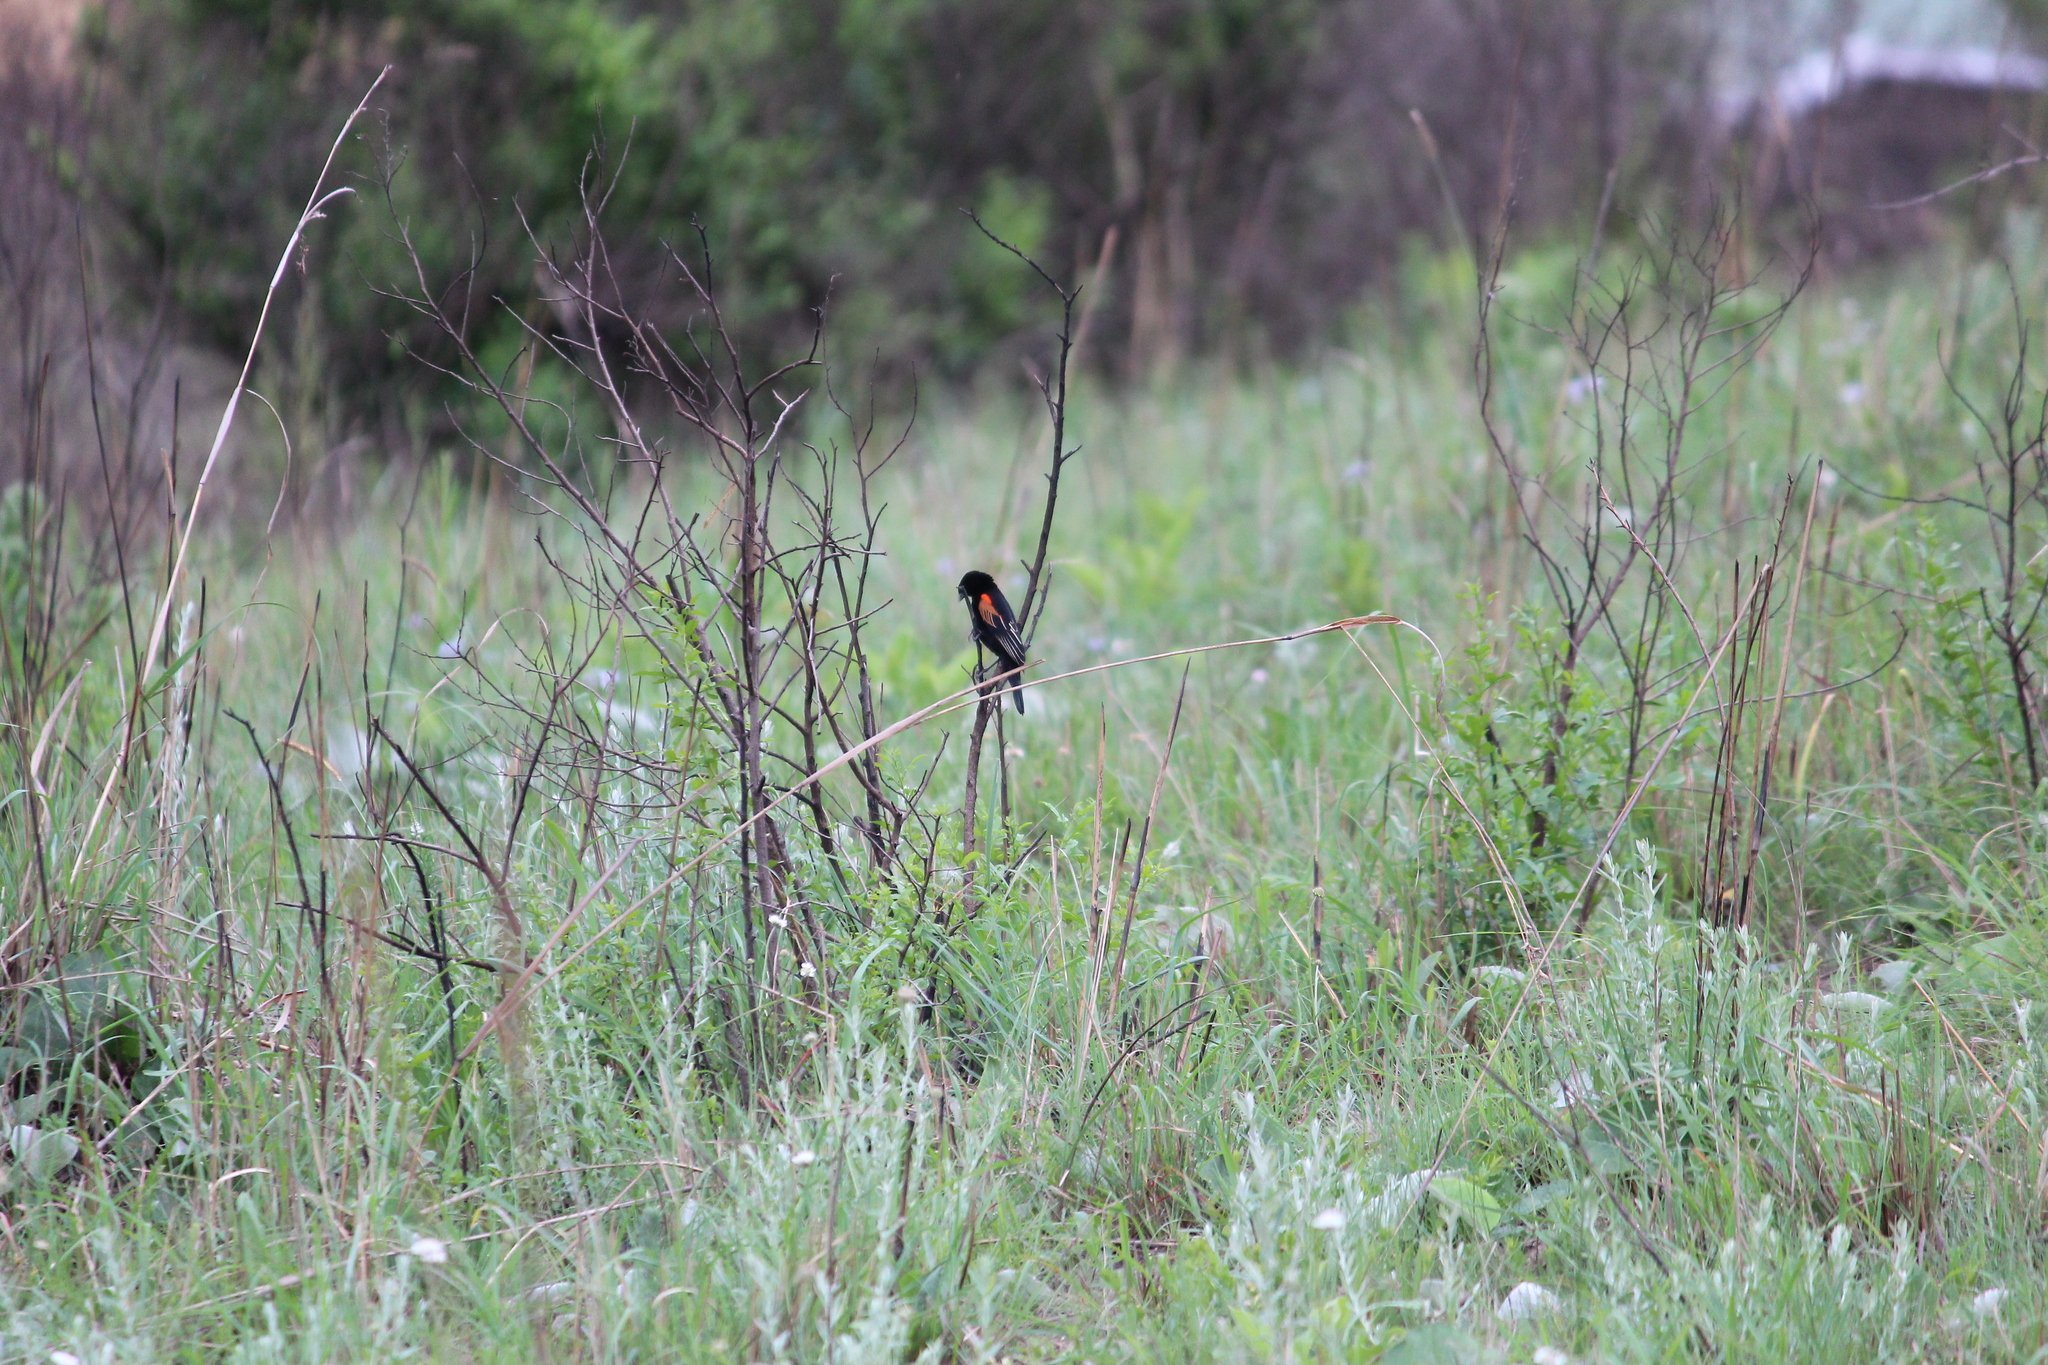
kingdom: Animalia
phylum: Chordata
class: Aves
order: Passeriformes
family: Ploceidae
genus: Euplectes
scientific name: Euplectes axillaris
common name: Fan-tailed widowbird
